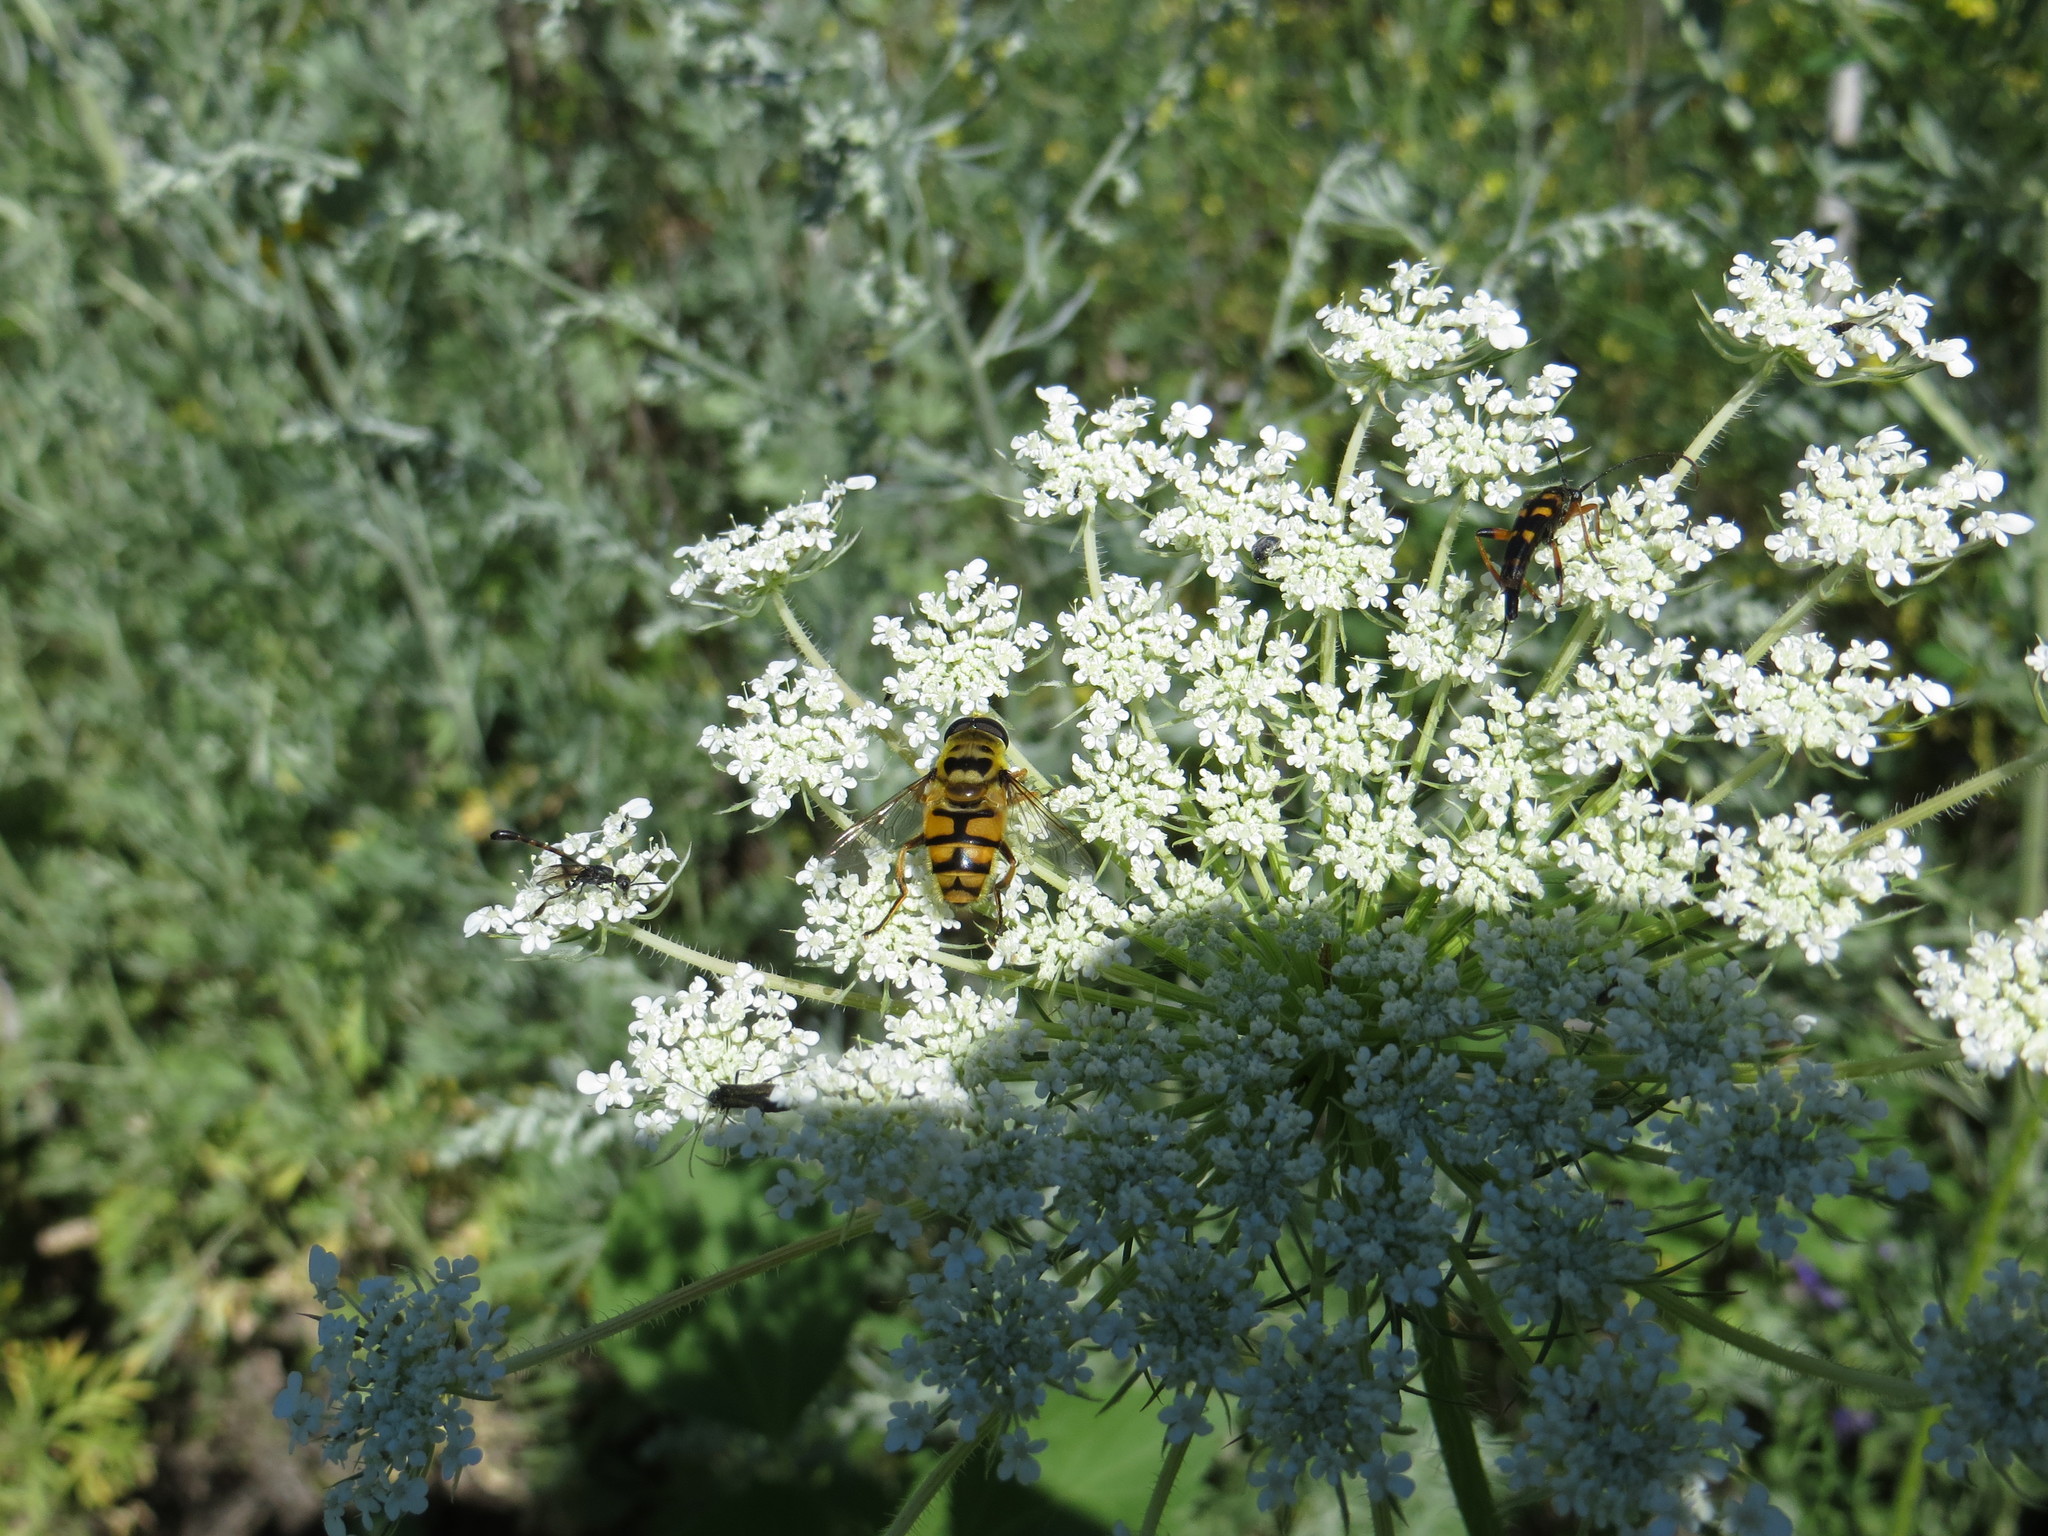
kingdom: Animalia
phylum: Arthropoda
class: Insecta
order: Diptera
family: Syrphidae
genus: Myathropa
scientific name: Myathropa florea
